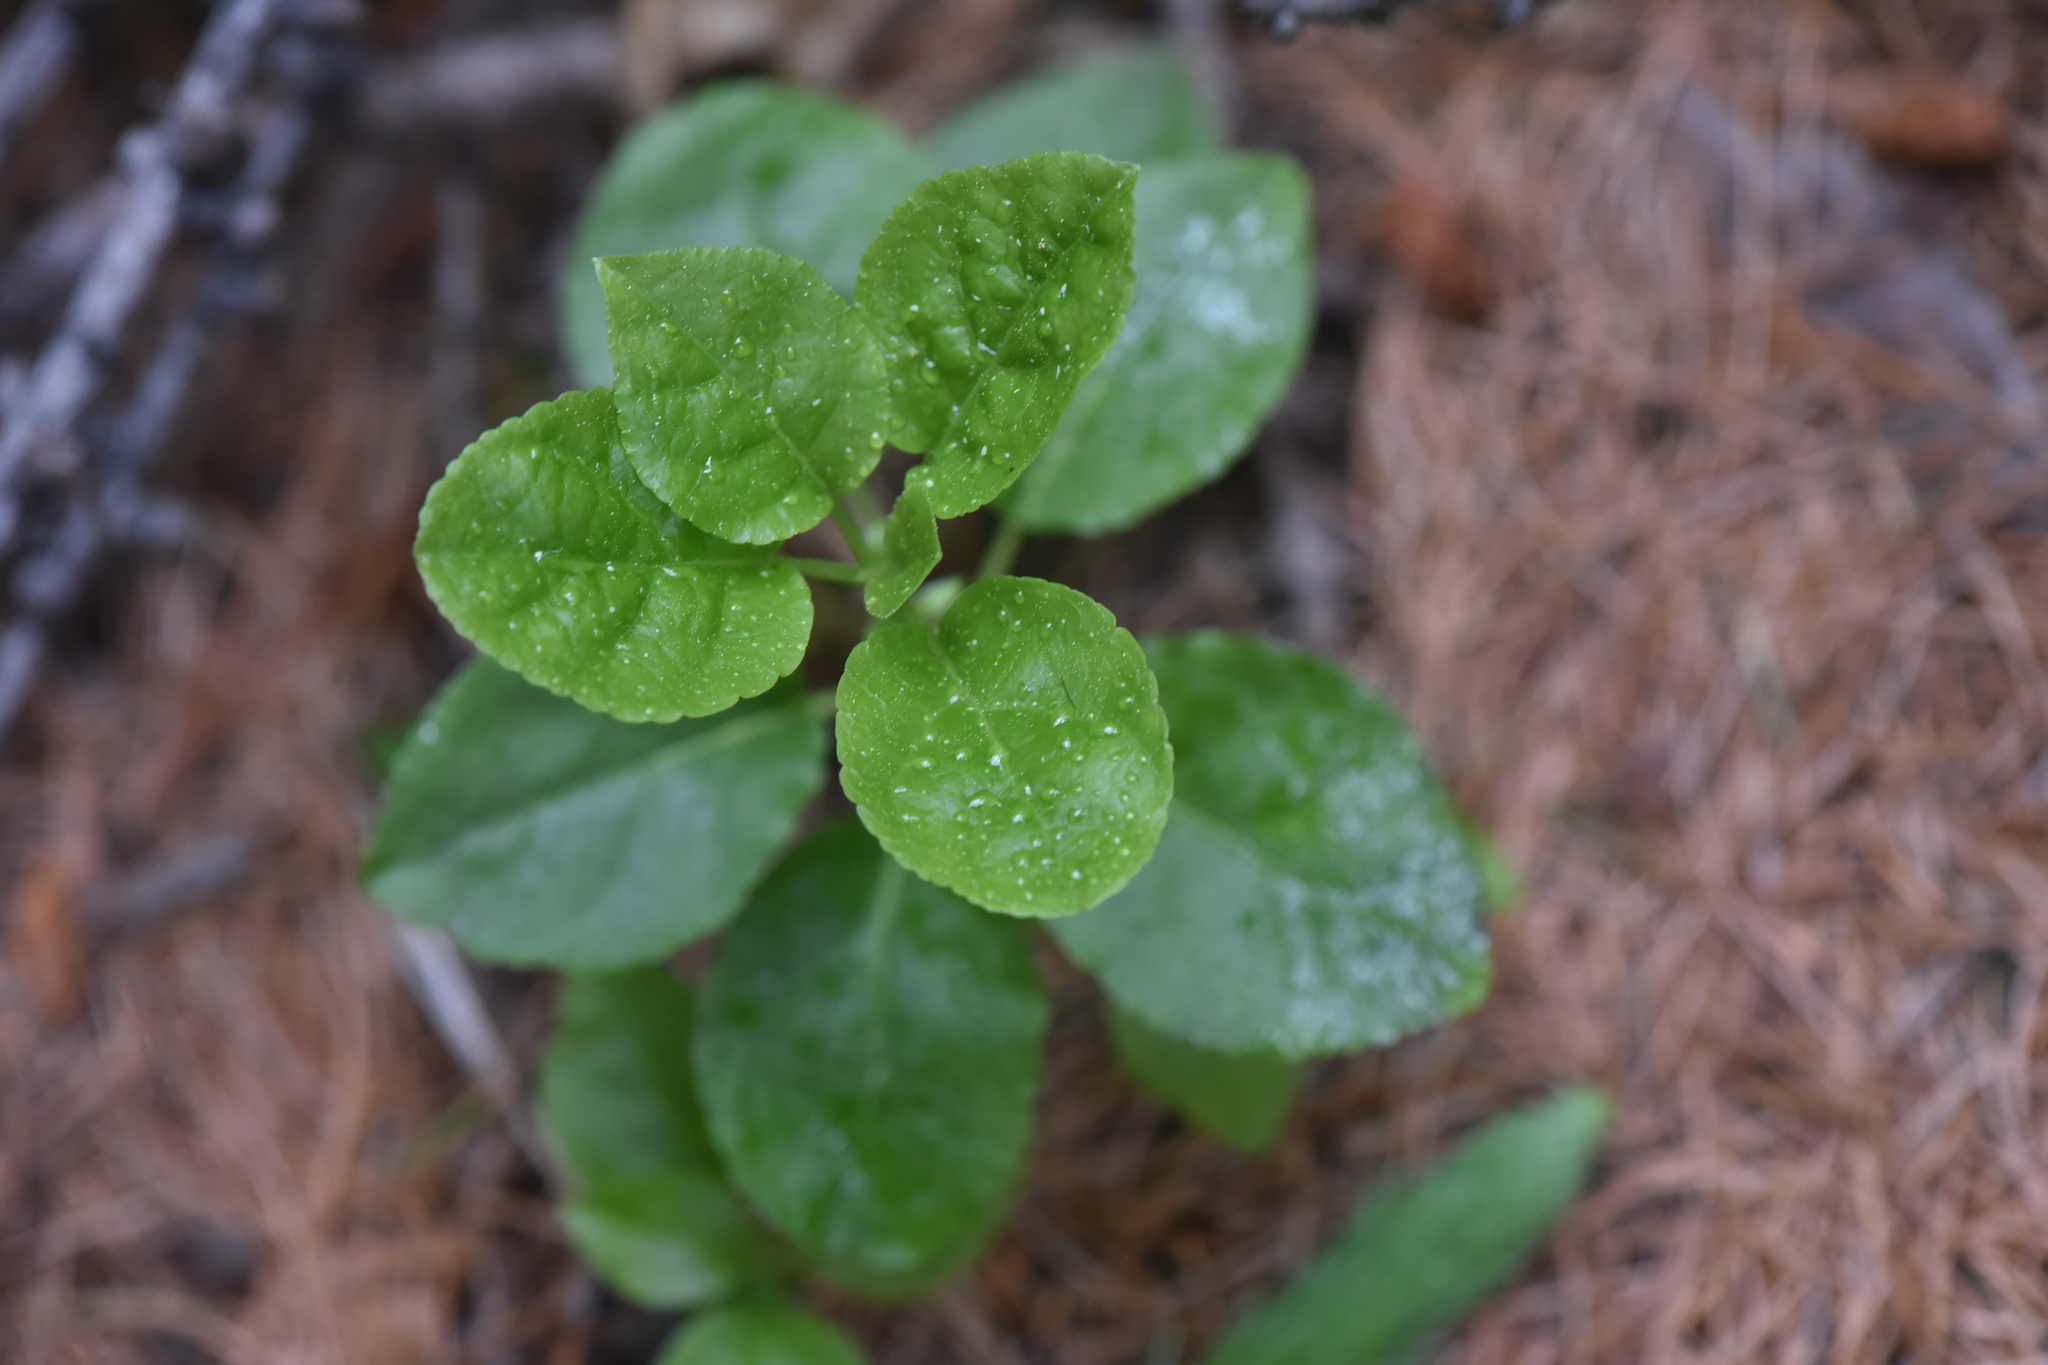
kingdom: Plantae
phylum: Tracheophyta
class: Magnoliopsida
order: Ericales
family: Ericaceae
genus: Orthilia
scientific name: Orthilia secunda
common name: One-sided orthilia
